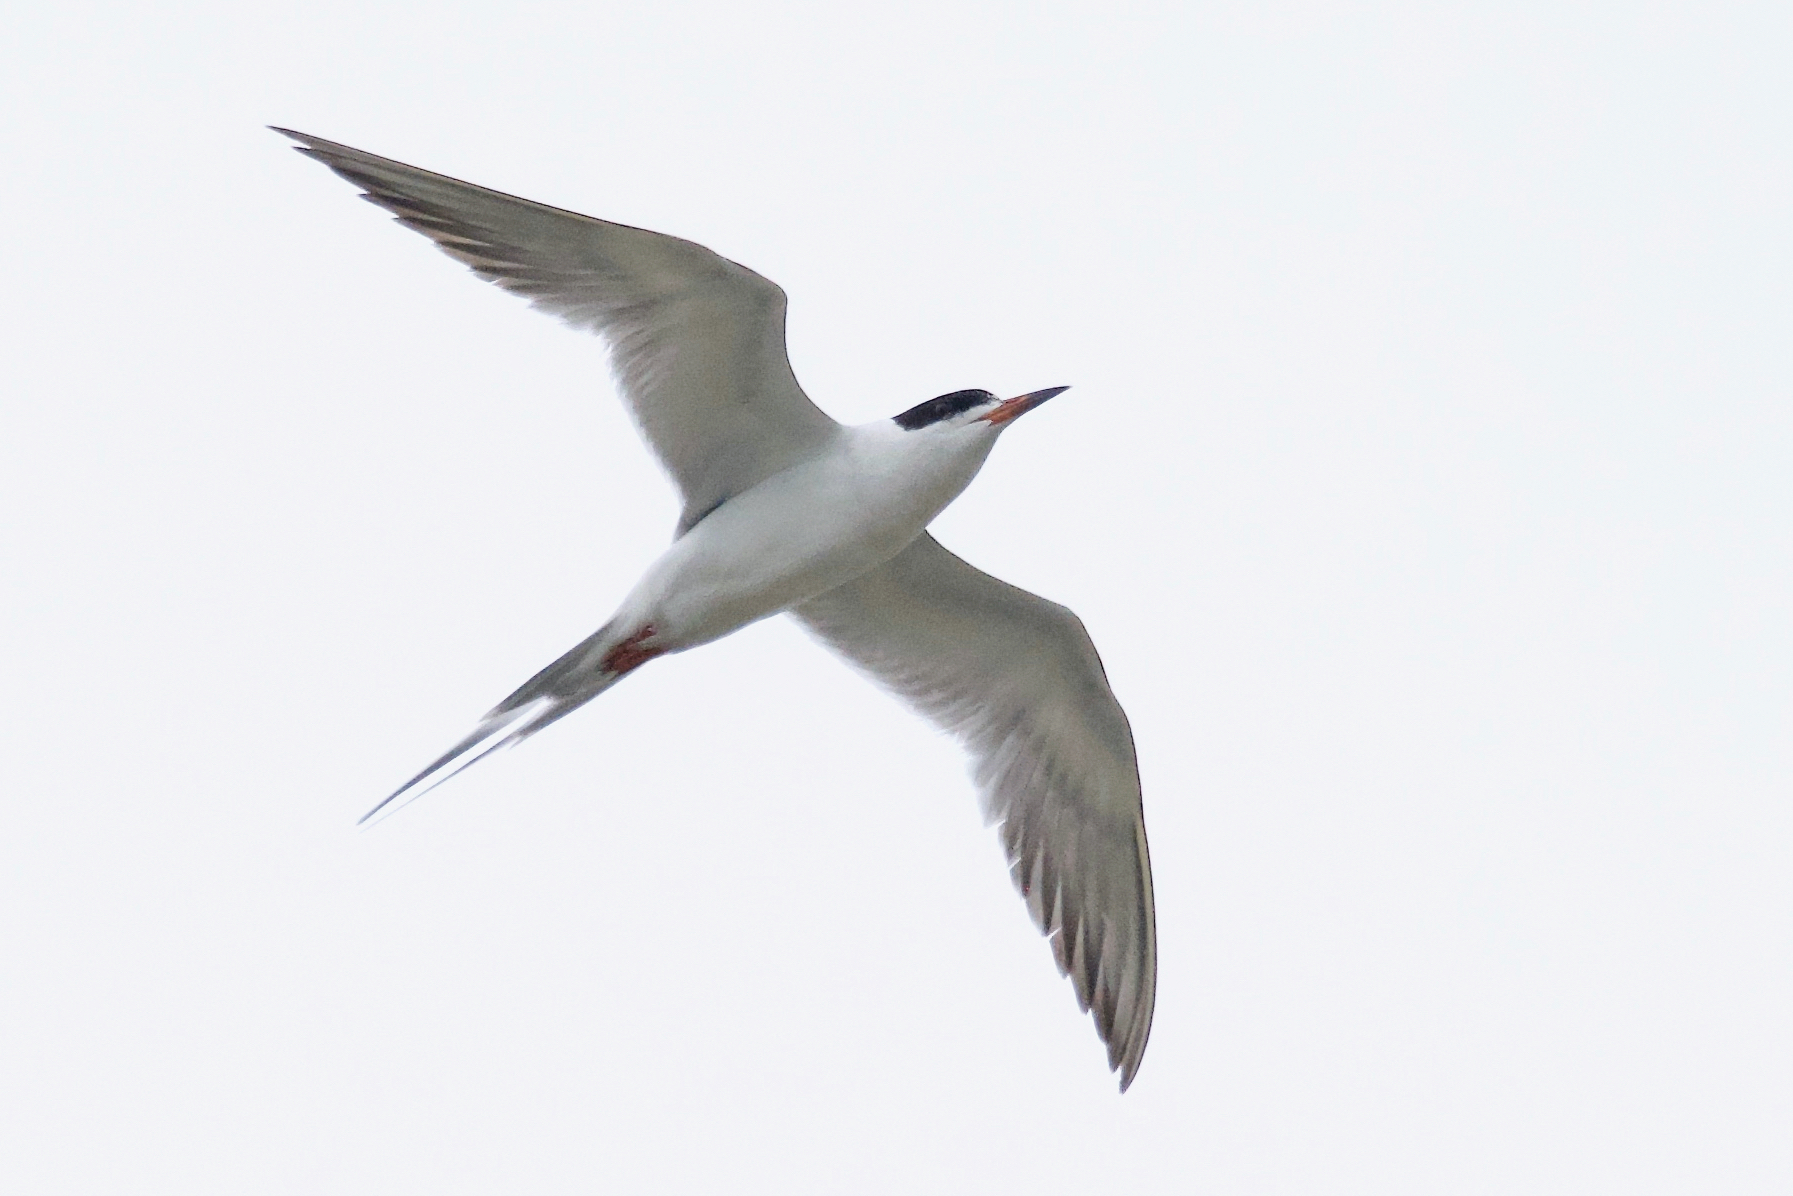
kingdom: Animalia
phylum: Chordata
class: Aves
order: Charadriiformes
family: Laridae
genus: Sterna
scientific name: Sterna forsteri
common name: Forster's tern
